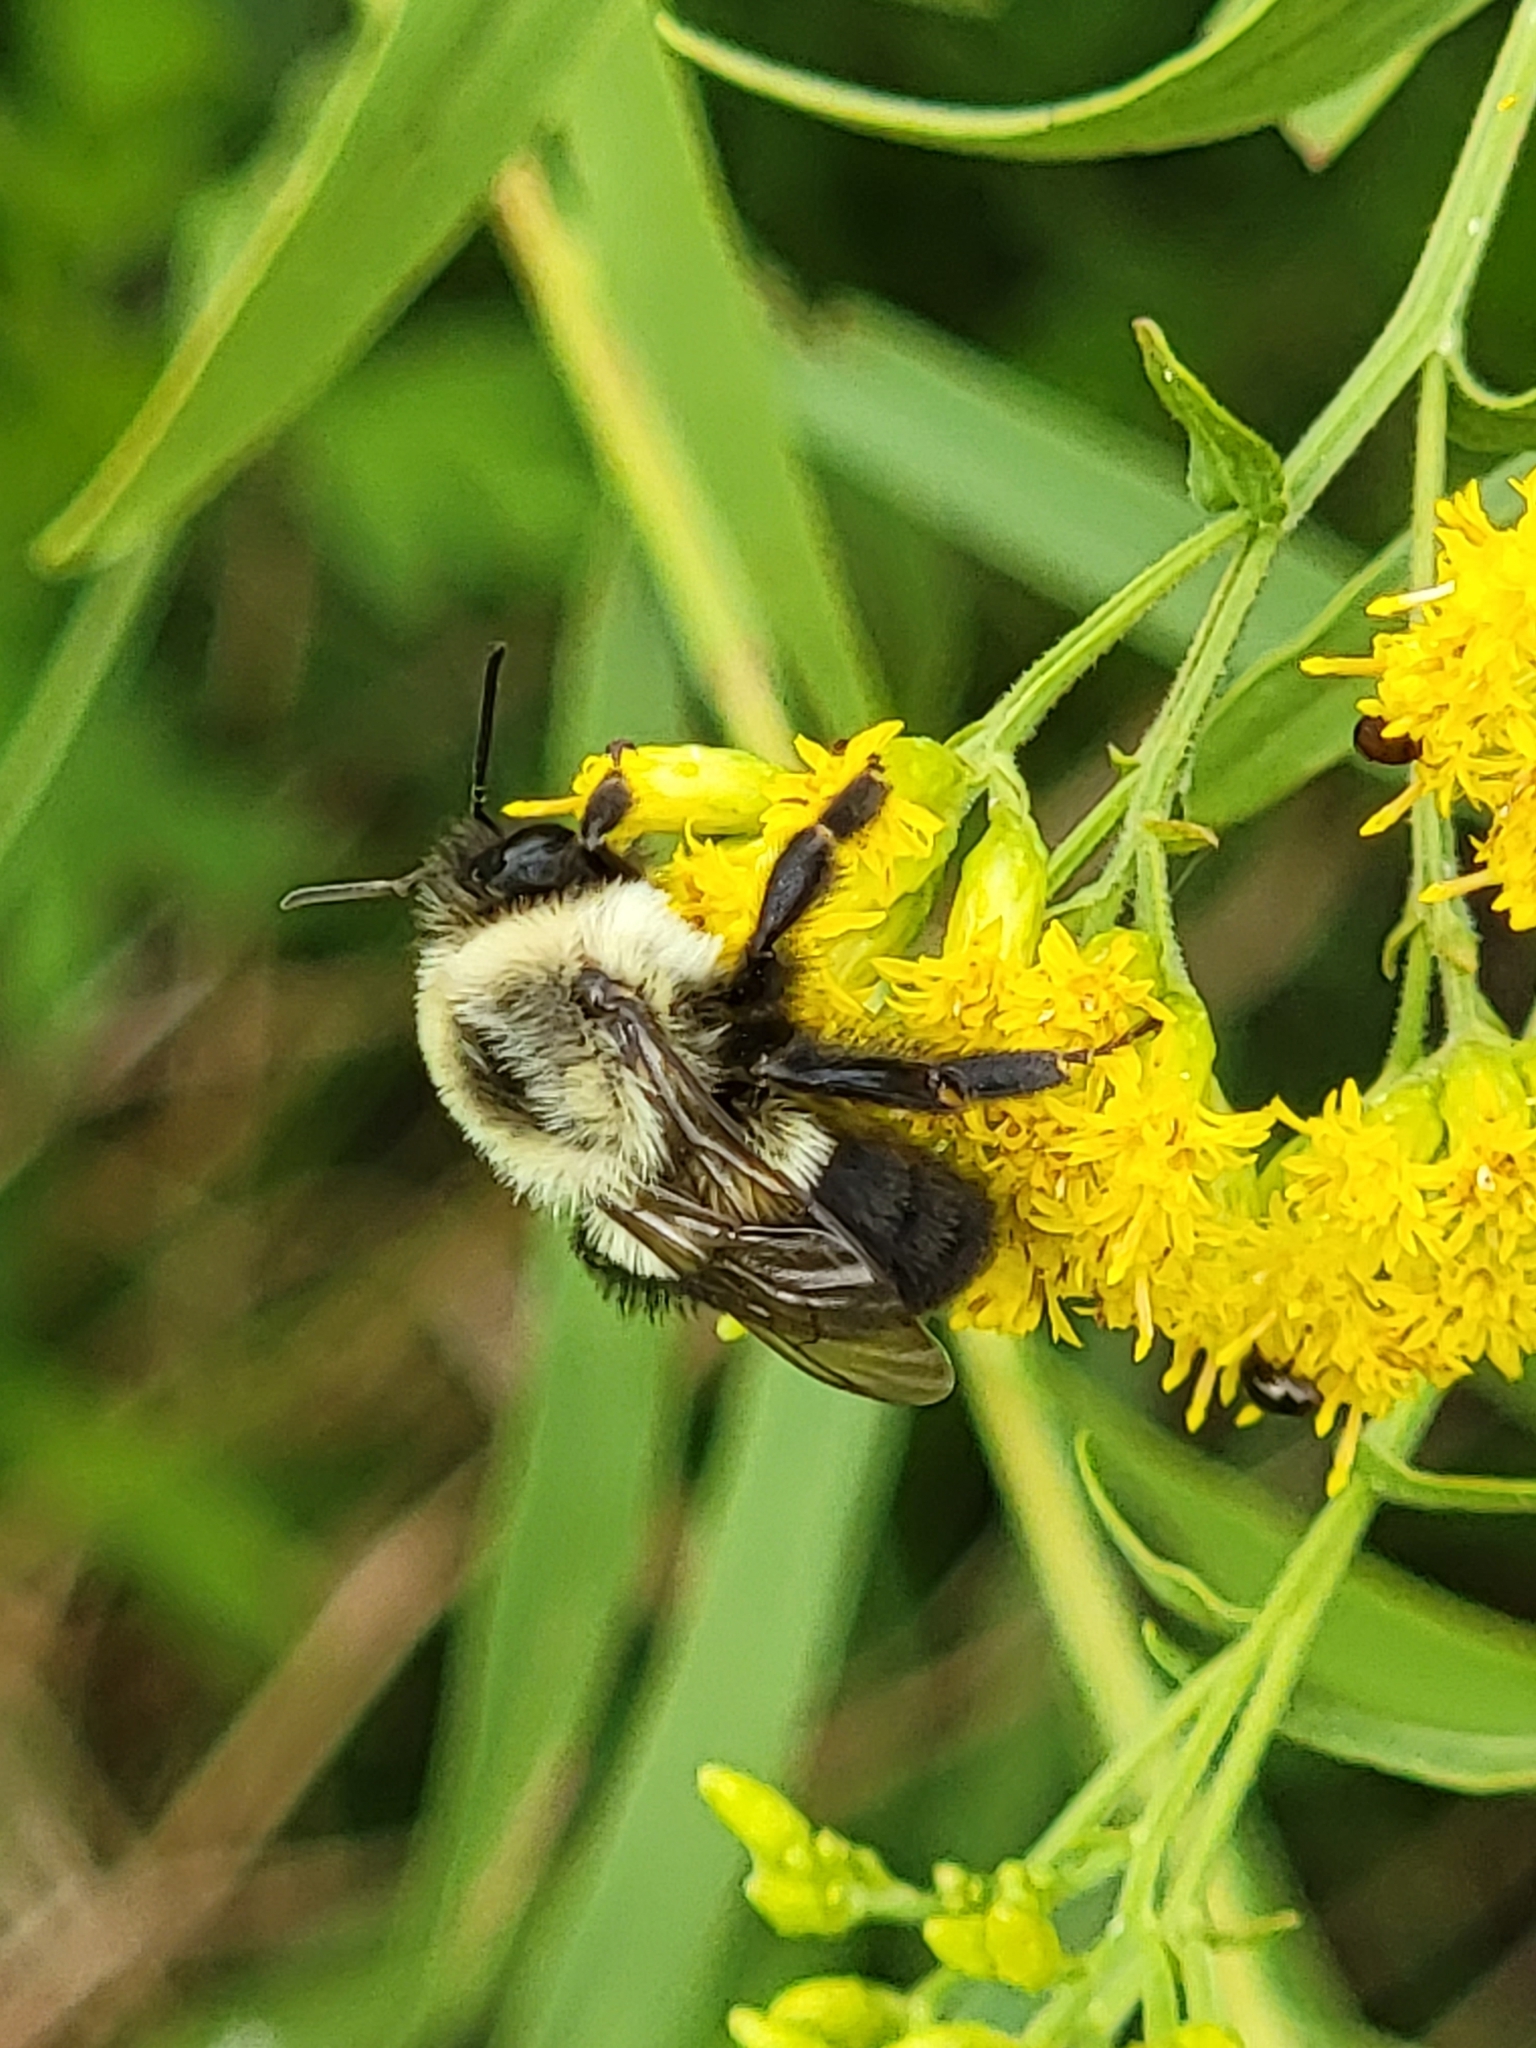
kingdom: Animalia
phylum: Arthropoda
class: Insecta
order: Hymenoptera
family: Apidae
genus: Bombus
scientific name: Bombus impatiens
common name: Common eastern bumble bee
